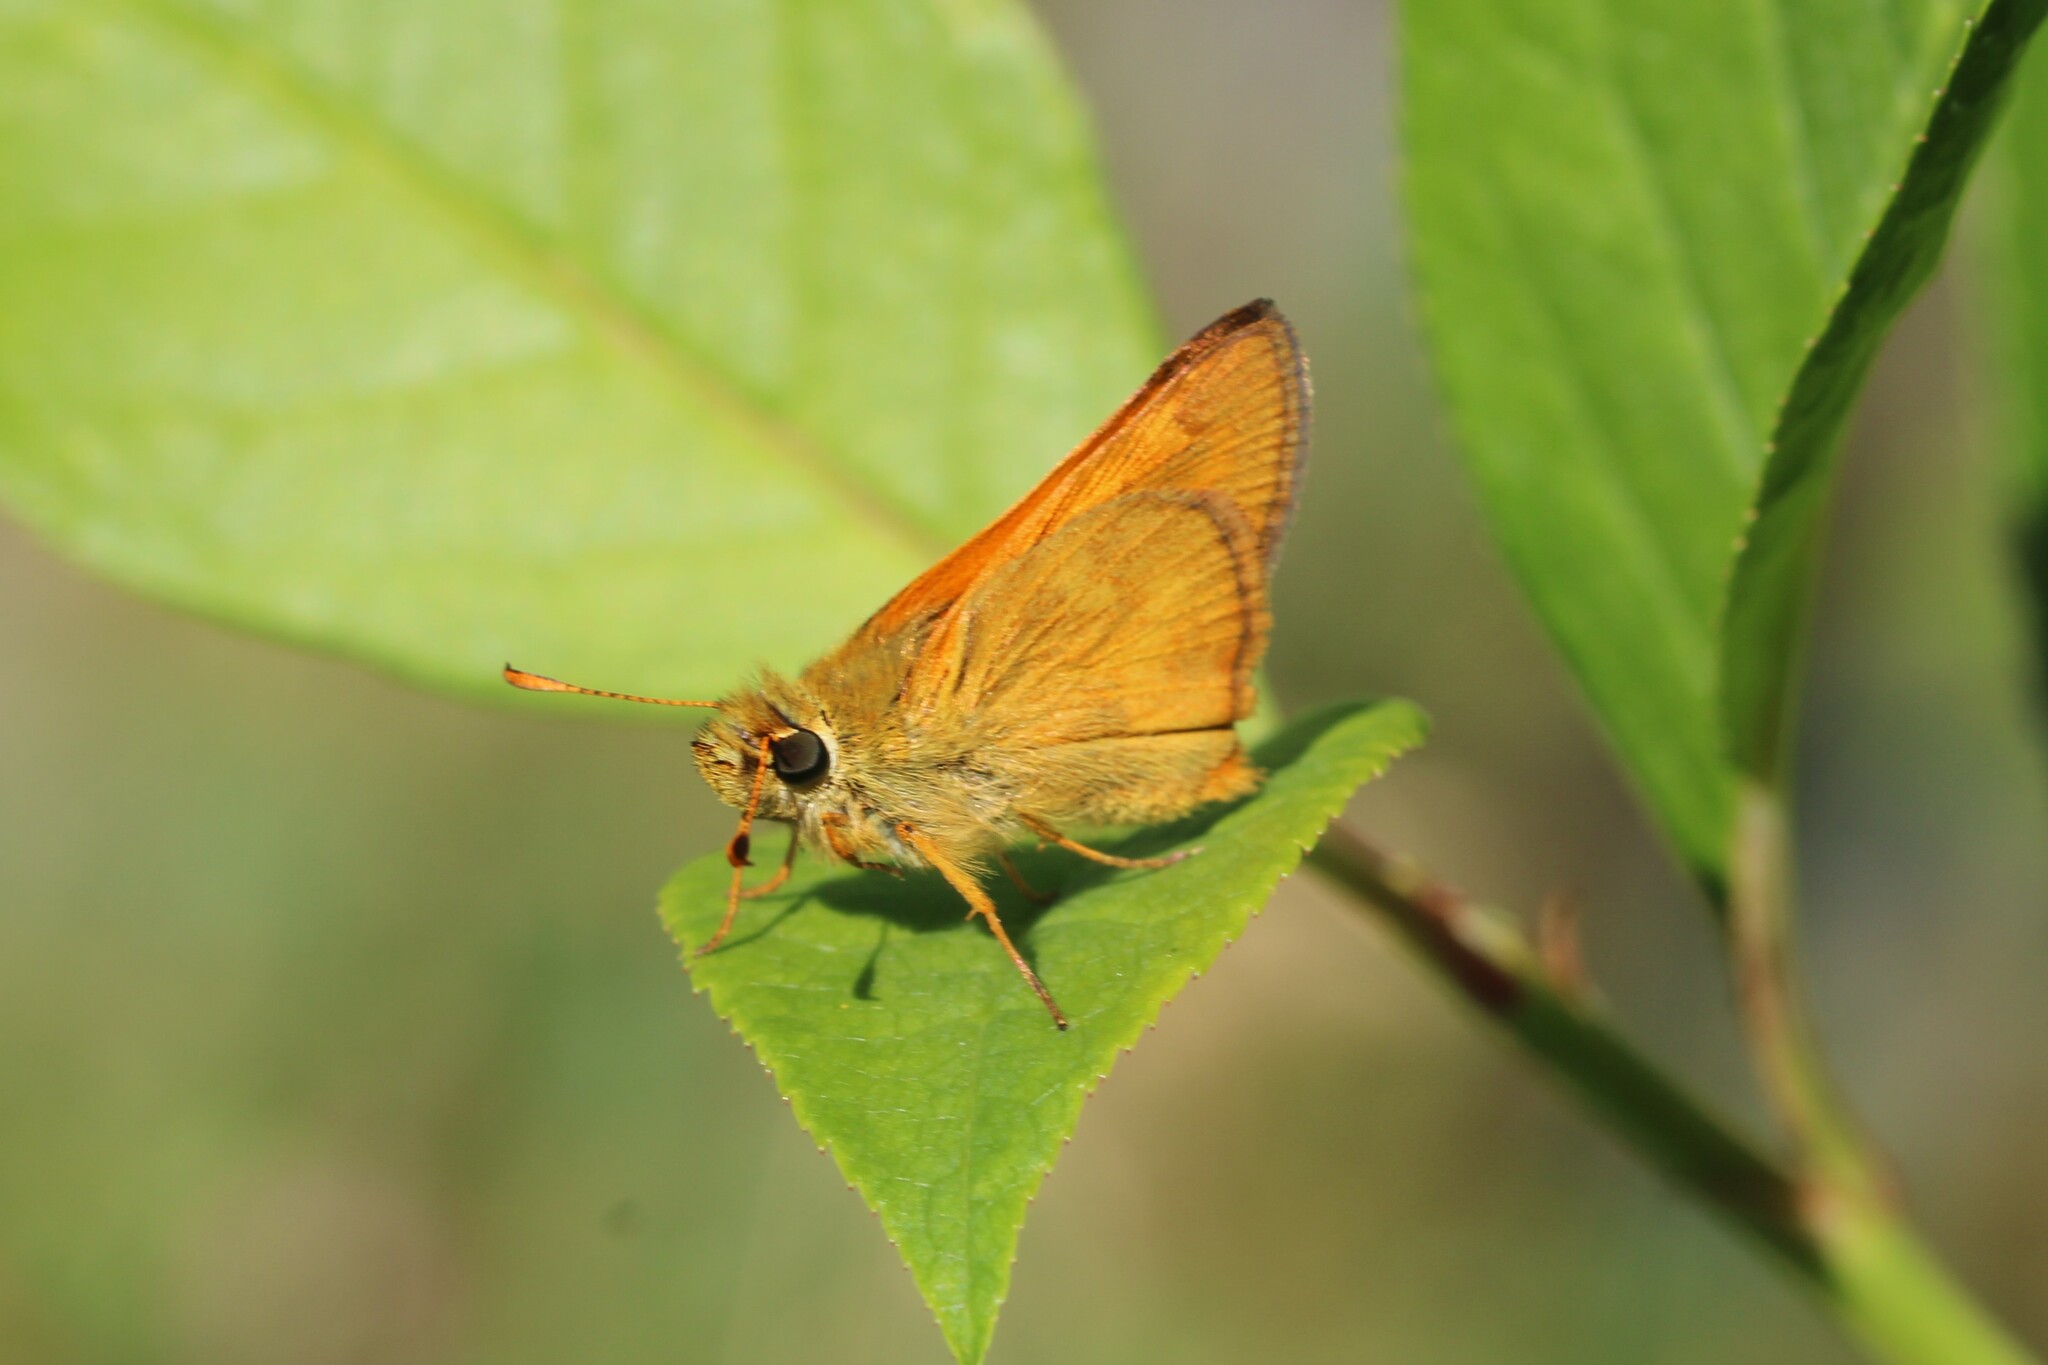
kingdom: Animalia
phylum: Arthropoda
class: Insecta
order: Lepidoptera
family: Hesperiidae
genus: Ochlodes
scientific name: Ochlodes sylvanoides
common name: Woodland skipper
